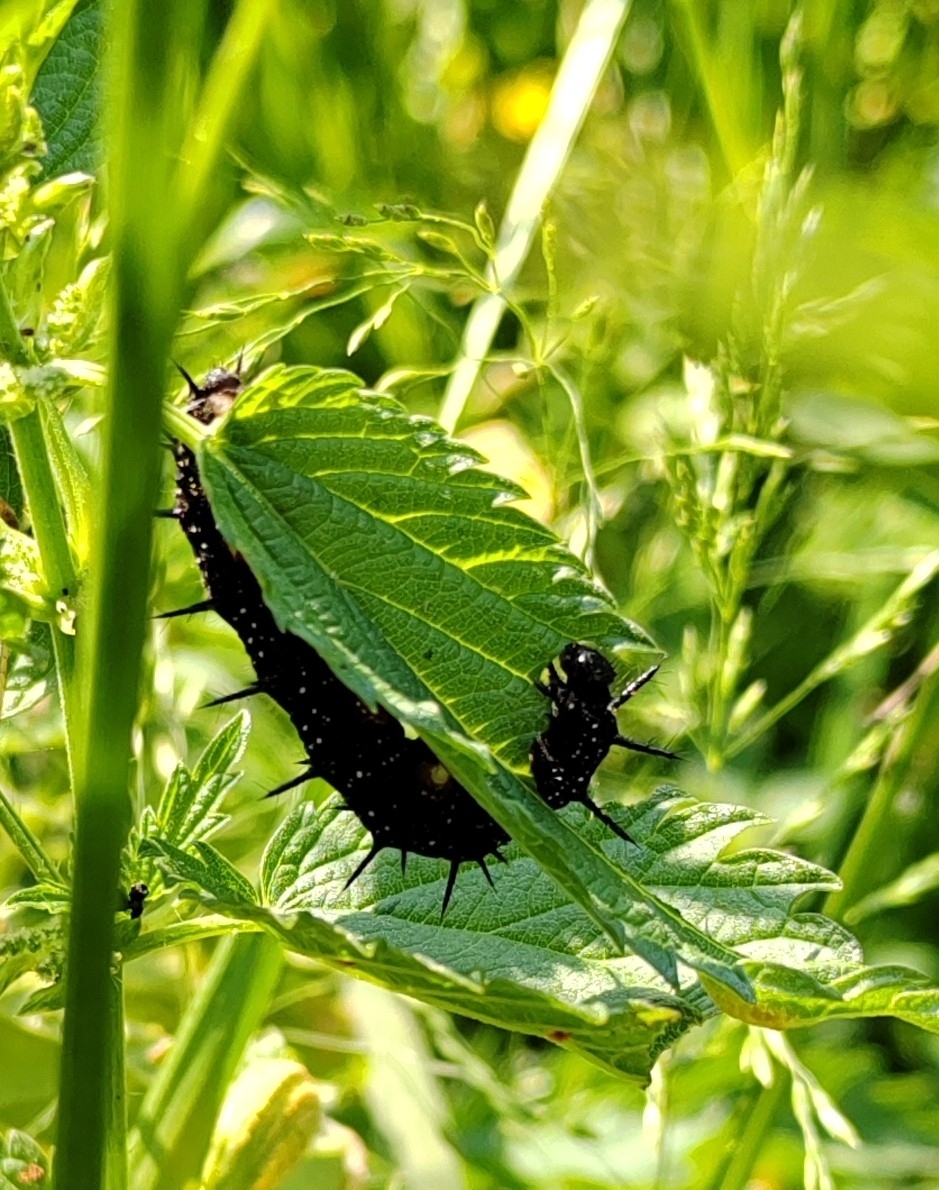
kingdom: Animalia
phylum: Arthropoda
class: Insecta
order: Lepidoptera
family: Nymphalidae
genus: Aglais
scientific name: Aglais io
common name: Peacock
